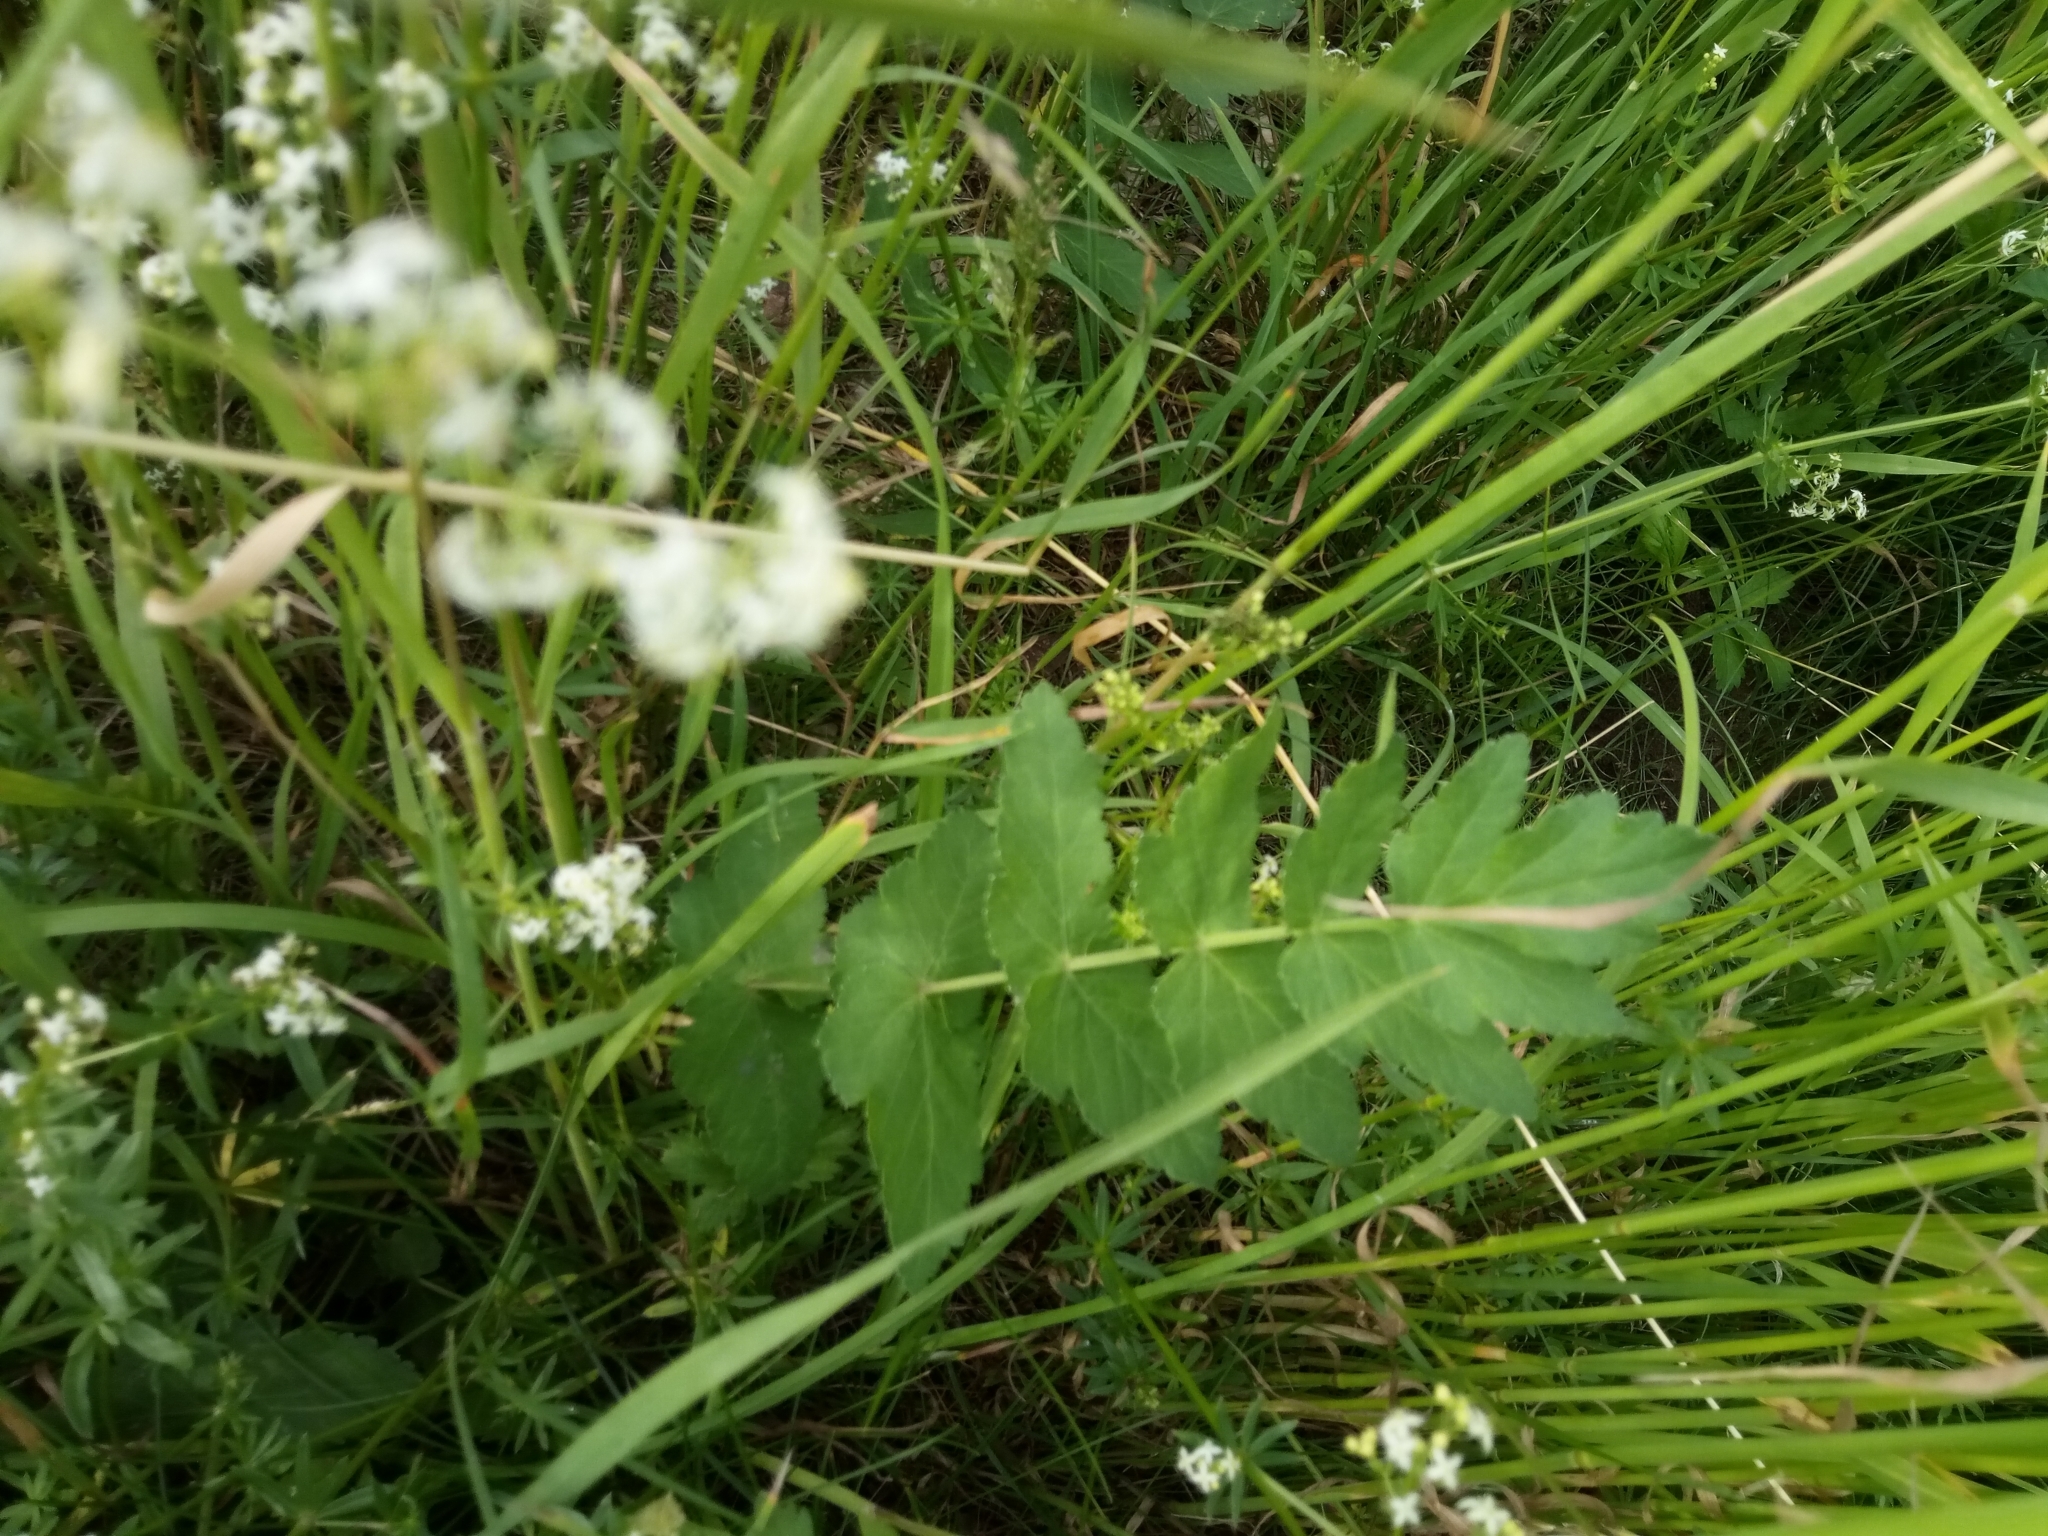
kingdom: Plantae
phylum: Tracheophyta
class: Magnoliopsida
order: Apiales
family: Apiaceae
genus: Pastinaca
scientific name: Pastinaca sativa
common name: Wild parsnip
